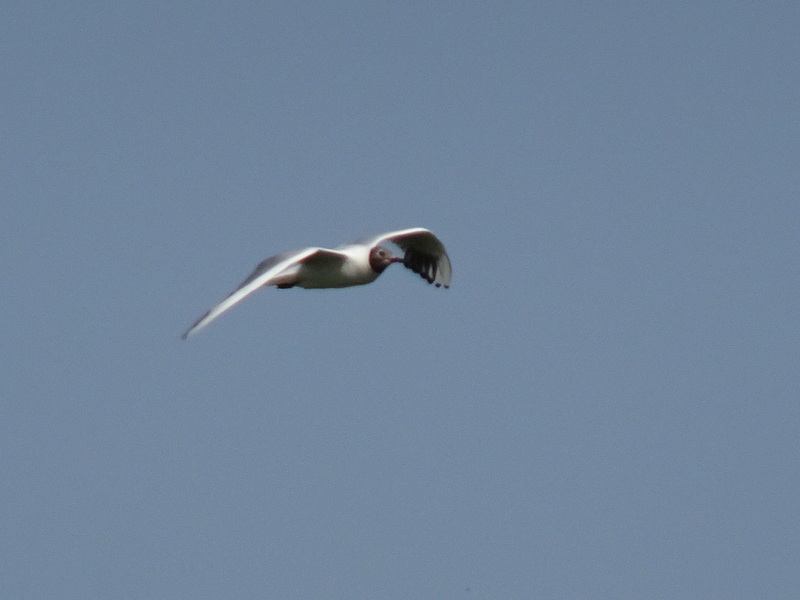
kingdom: Animalia
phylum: Chordata
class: Aves
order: Charadriiformes
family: Laridae
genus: Chroicocephalus
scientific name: Chroicocephalus ridibundus
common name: Black-headed gull
